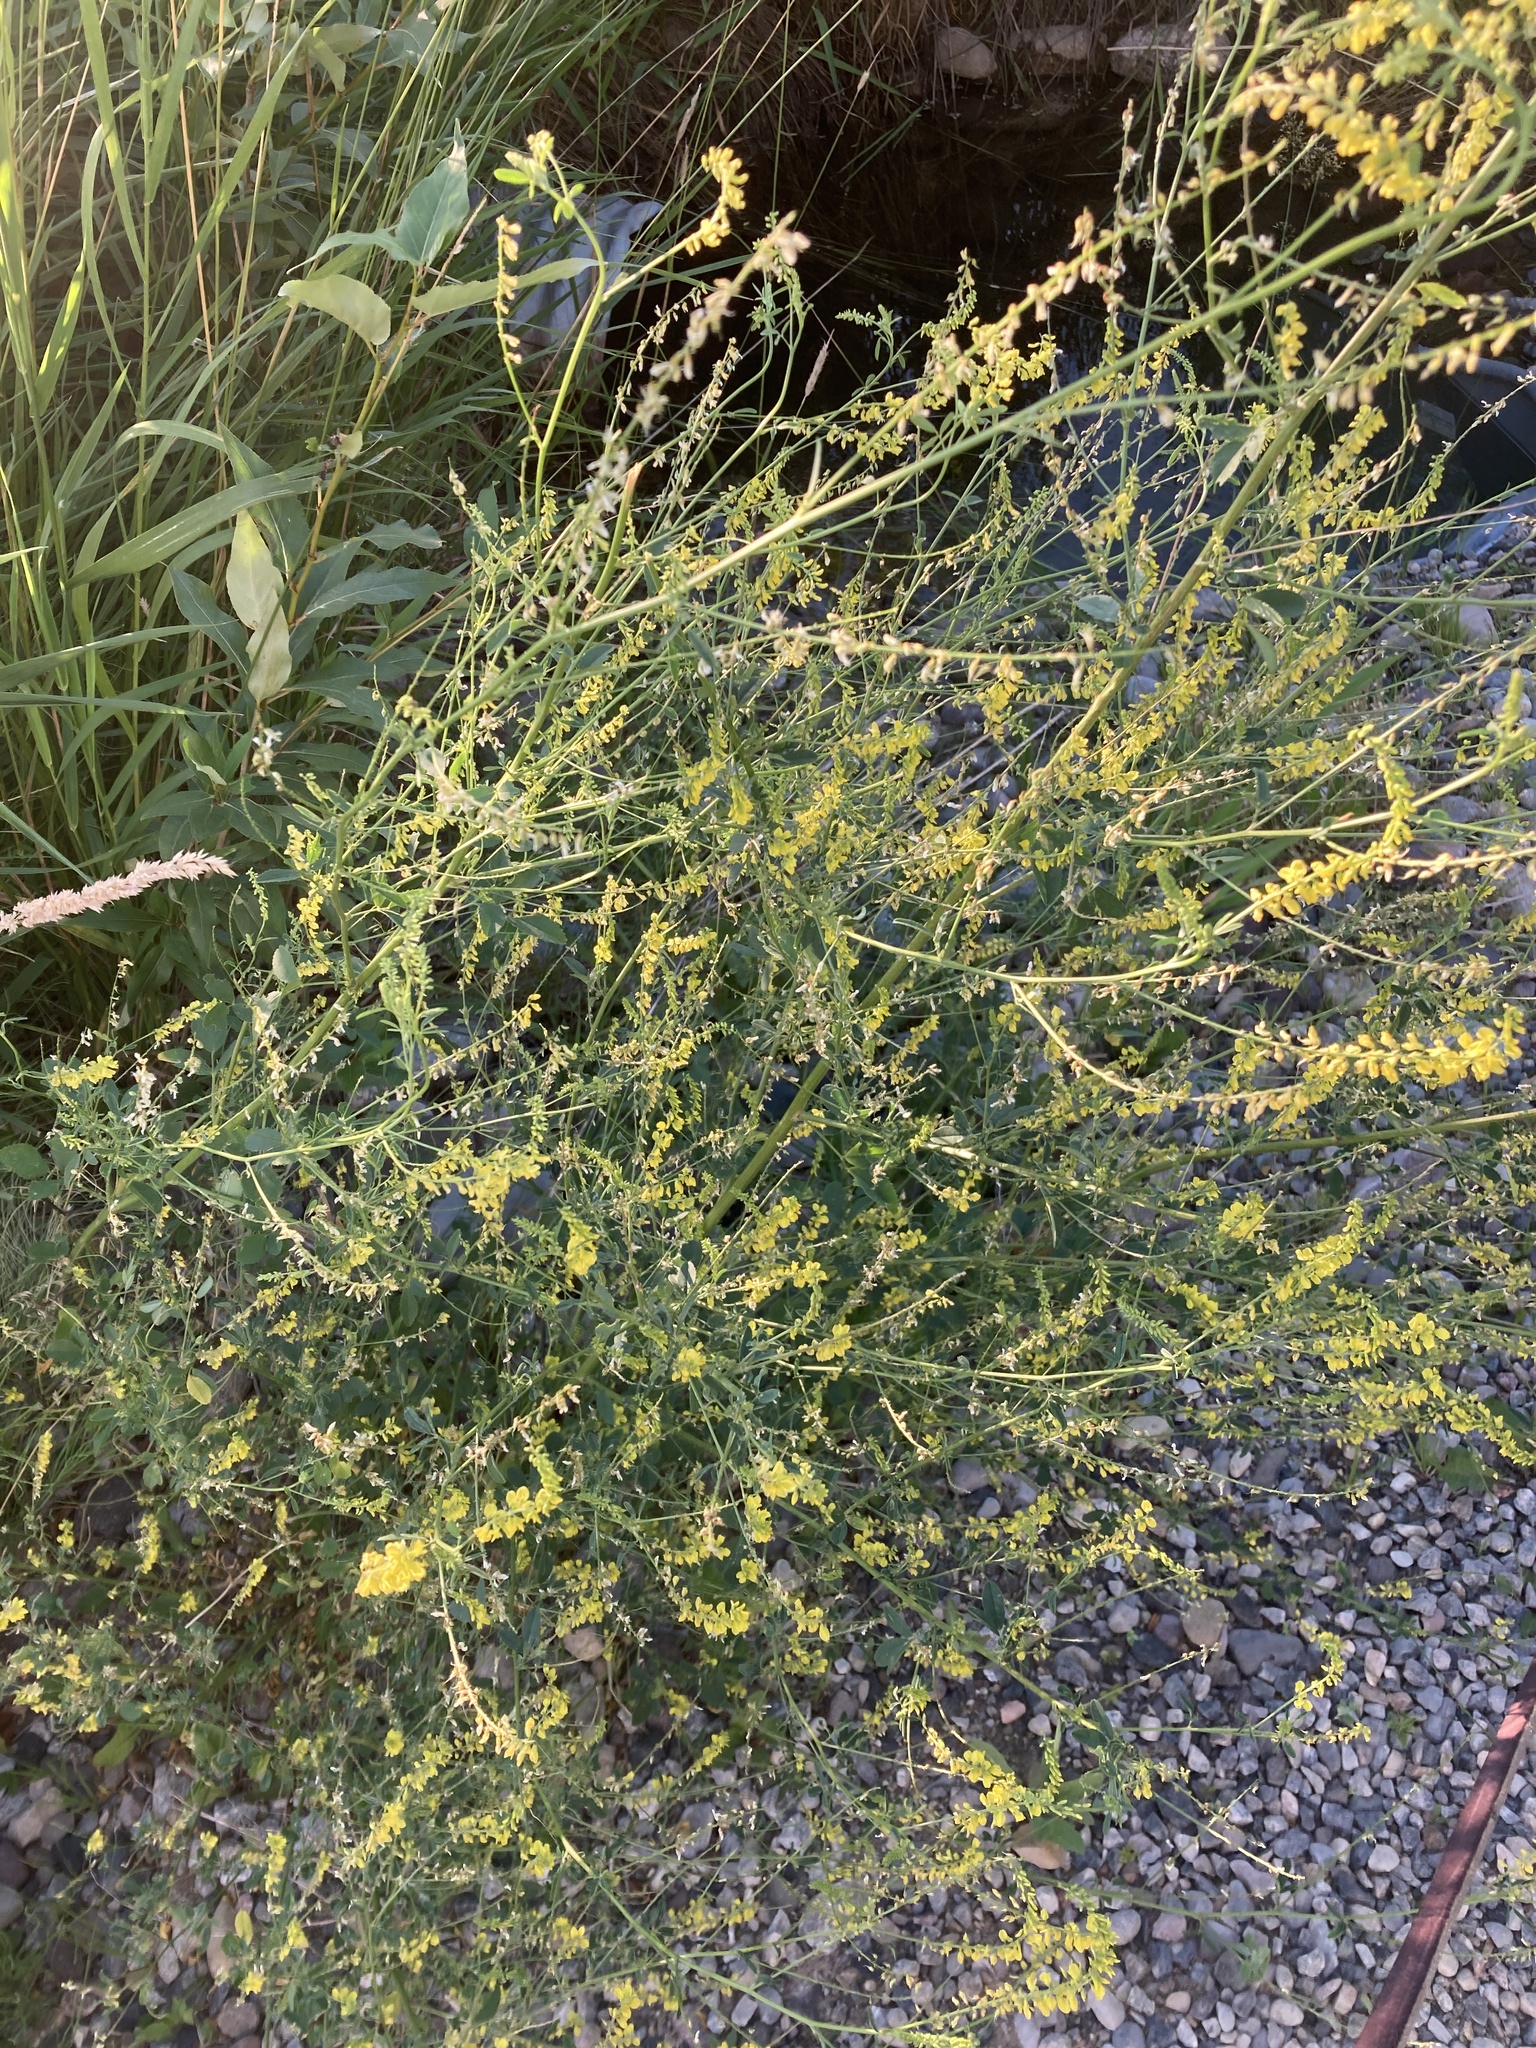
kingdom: Plantae
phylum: Tracheophyta
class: Magnoliopsida
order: Fabales
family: Fabaceae
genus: Melilotus
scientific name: Melilotus officinalis
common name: Sweetclover
